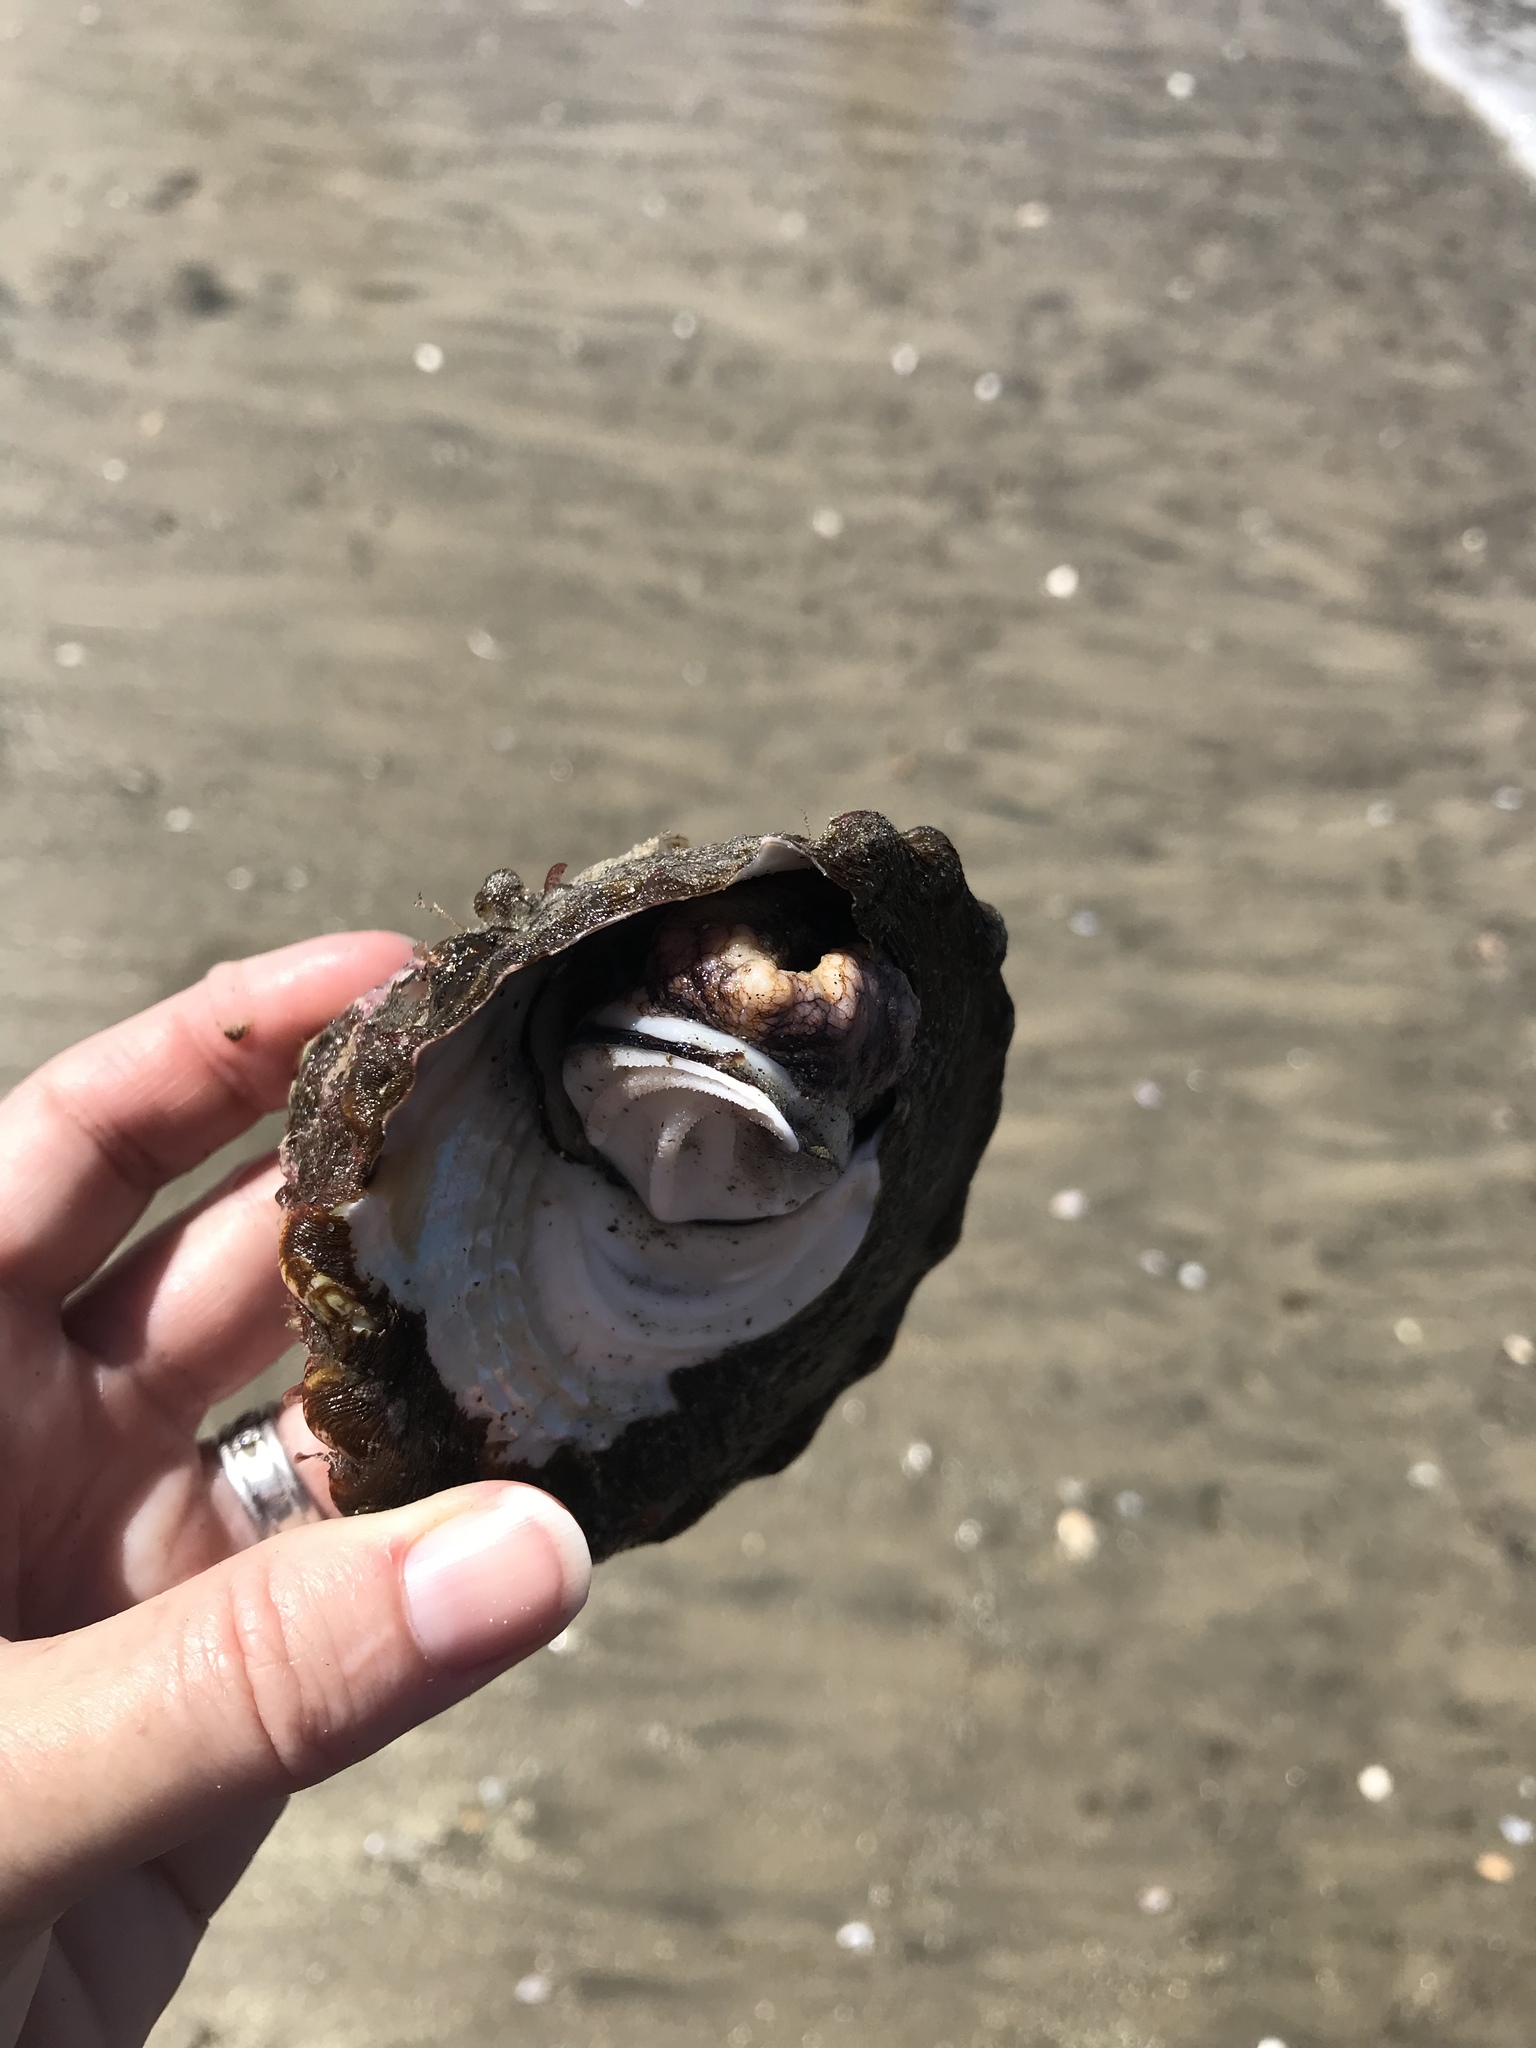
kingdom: Animalia
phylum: Mollusca
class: Gastropoda
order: Trochida
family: Turbinidae
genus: Megastraea
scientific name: Megastraea undosa
